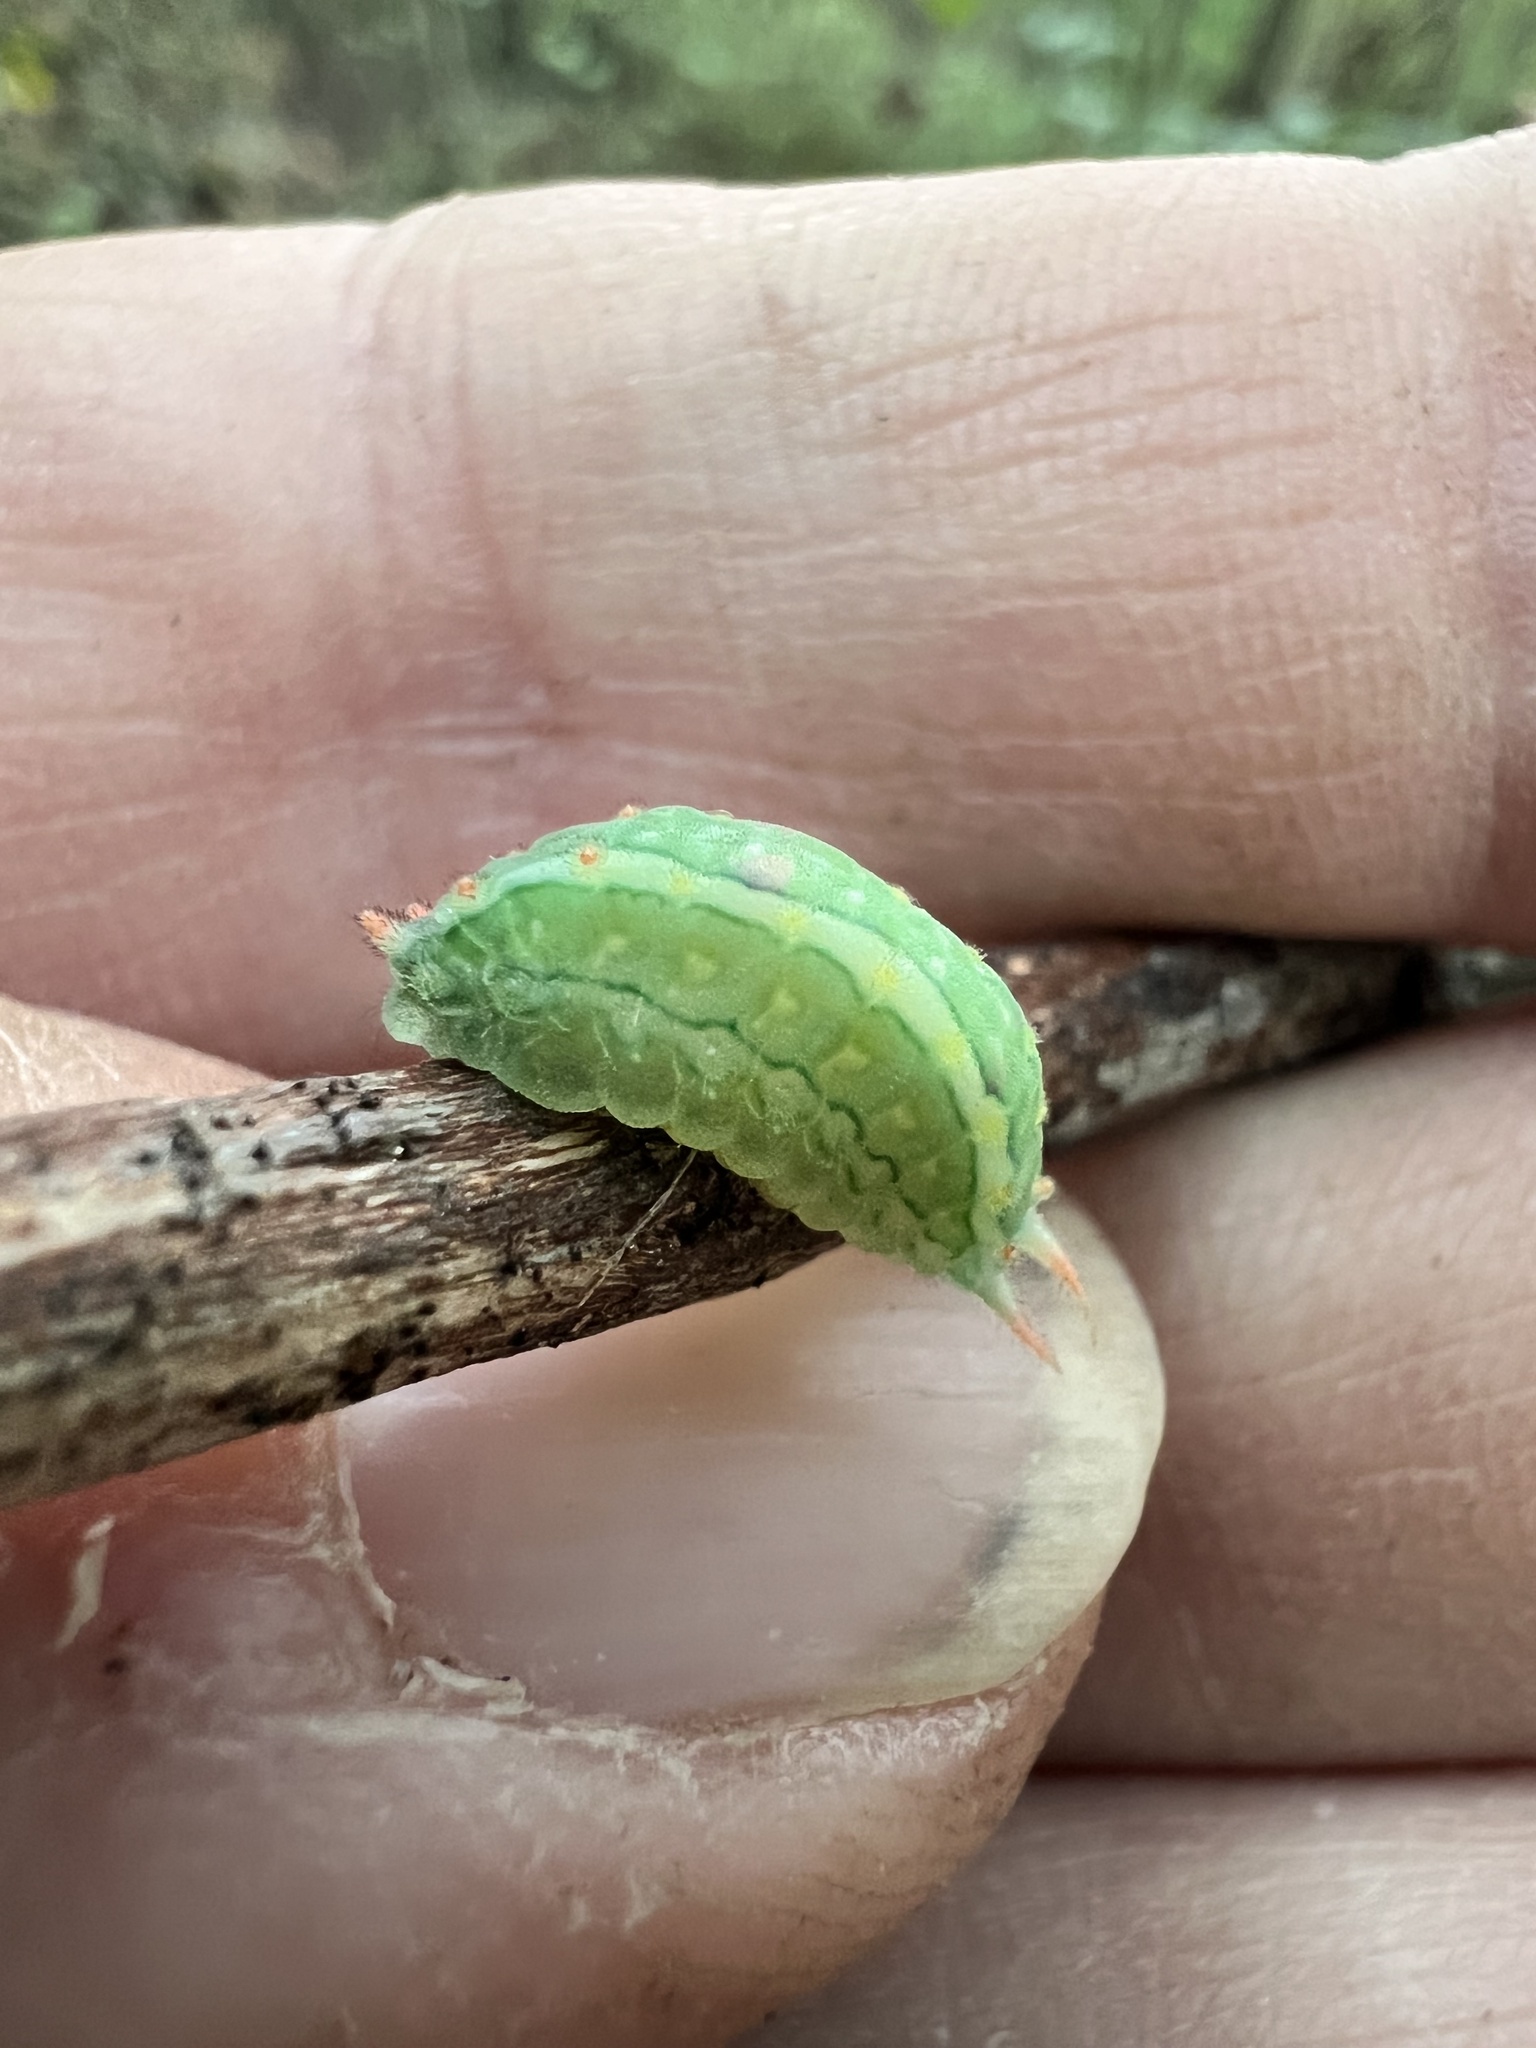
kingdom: Animalia
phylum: Arthropoda
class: Insecta
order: Lepidoptera
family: Limacodidae
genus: Adoneta
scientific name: Adoneta bicaudata
